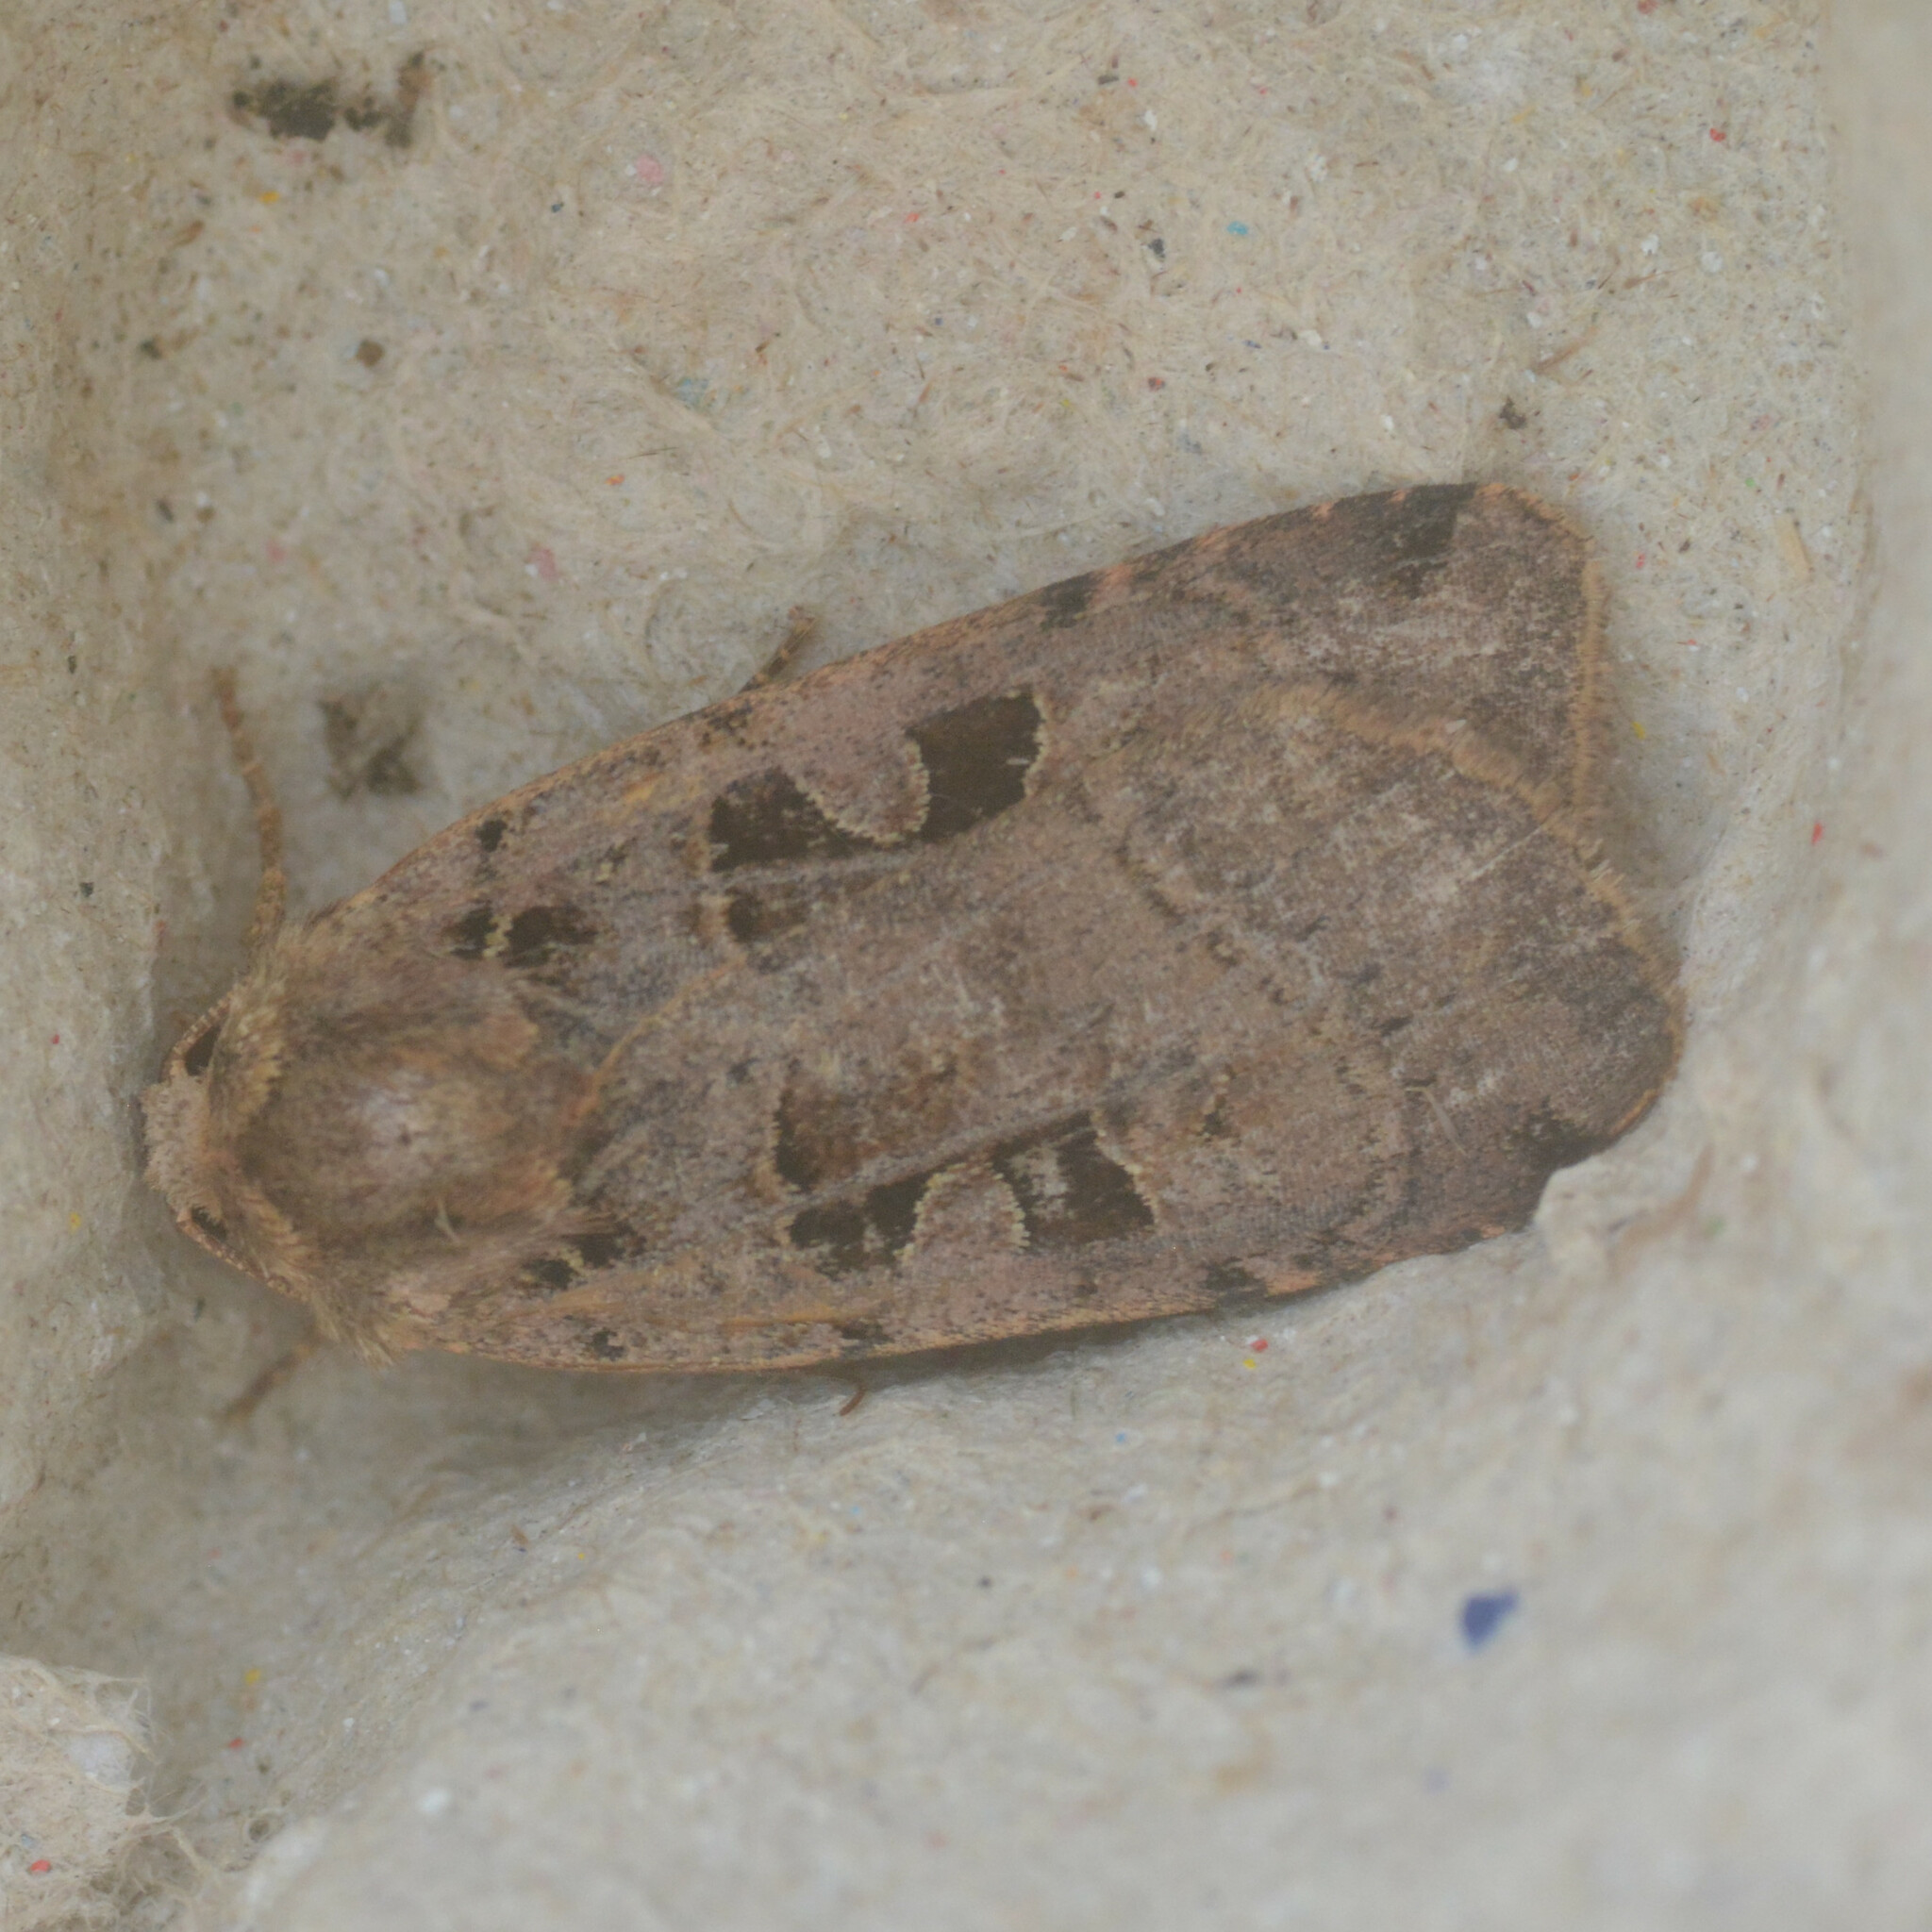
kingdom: Animalia
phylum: Arthropoda
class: Insecta
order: Lepidoptera
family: Noctuidae
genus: Xestia
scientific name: Xestia triangulum
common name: Double square-spot
